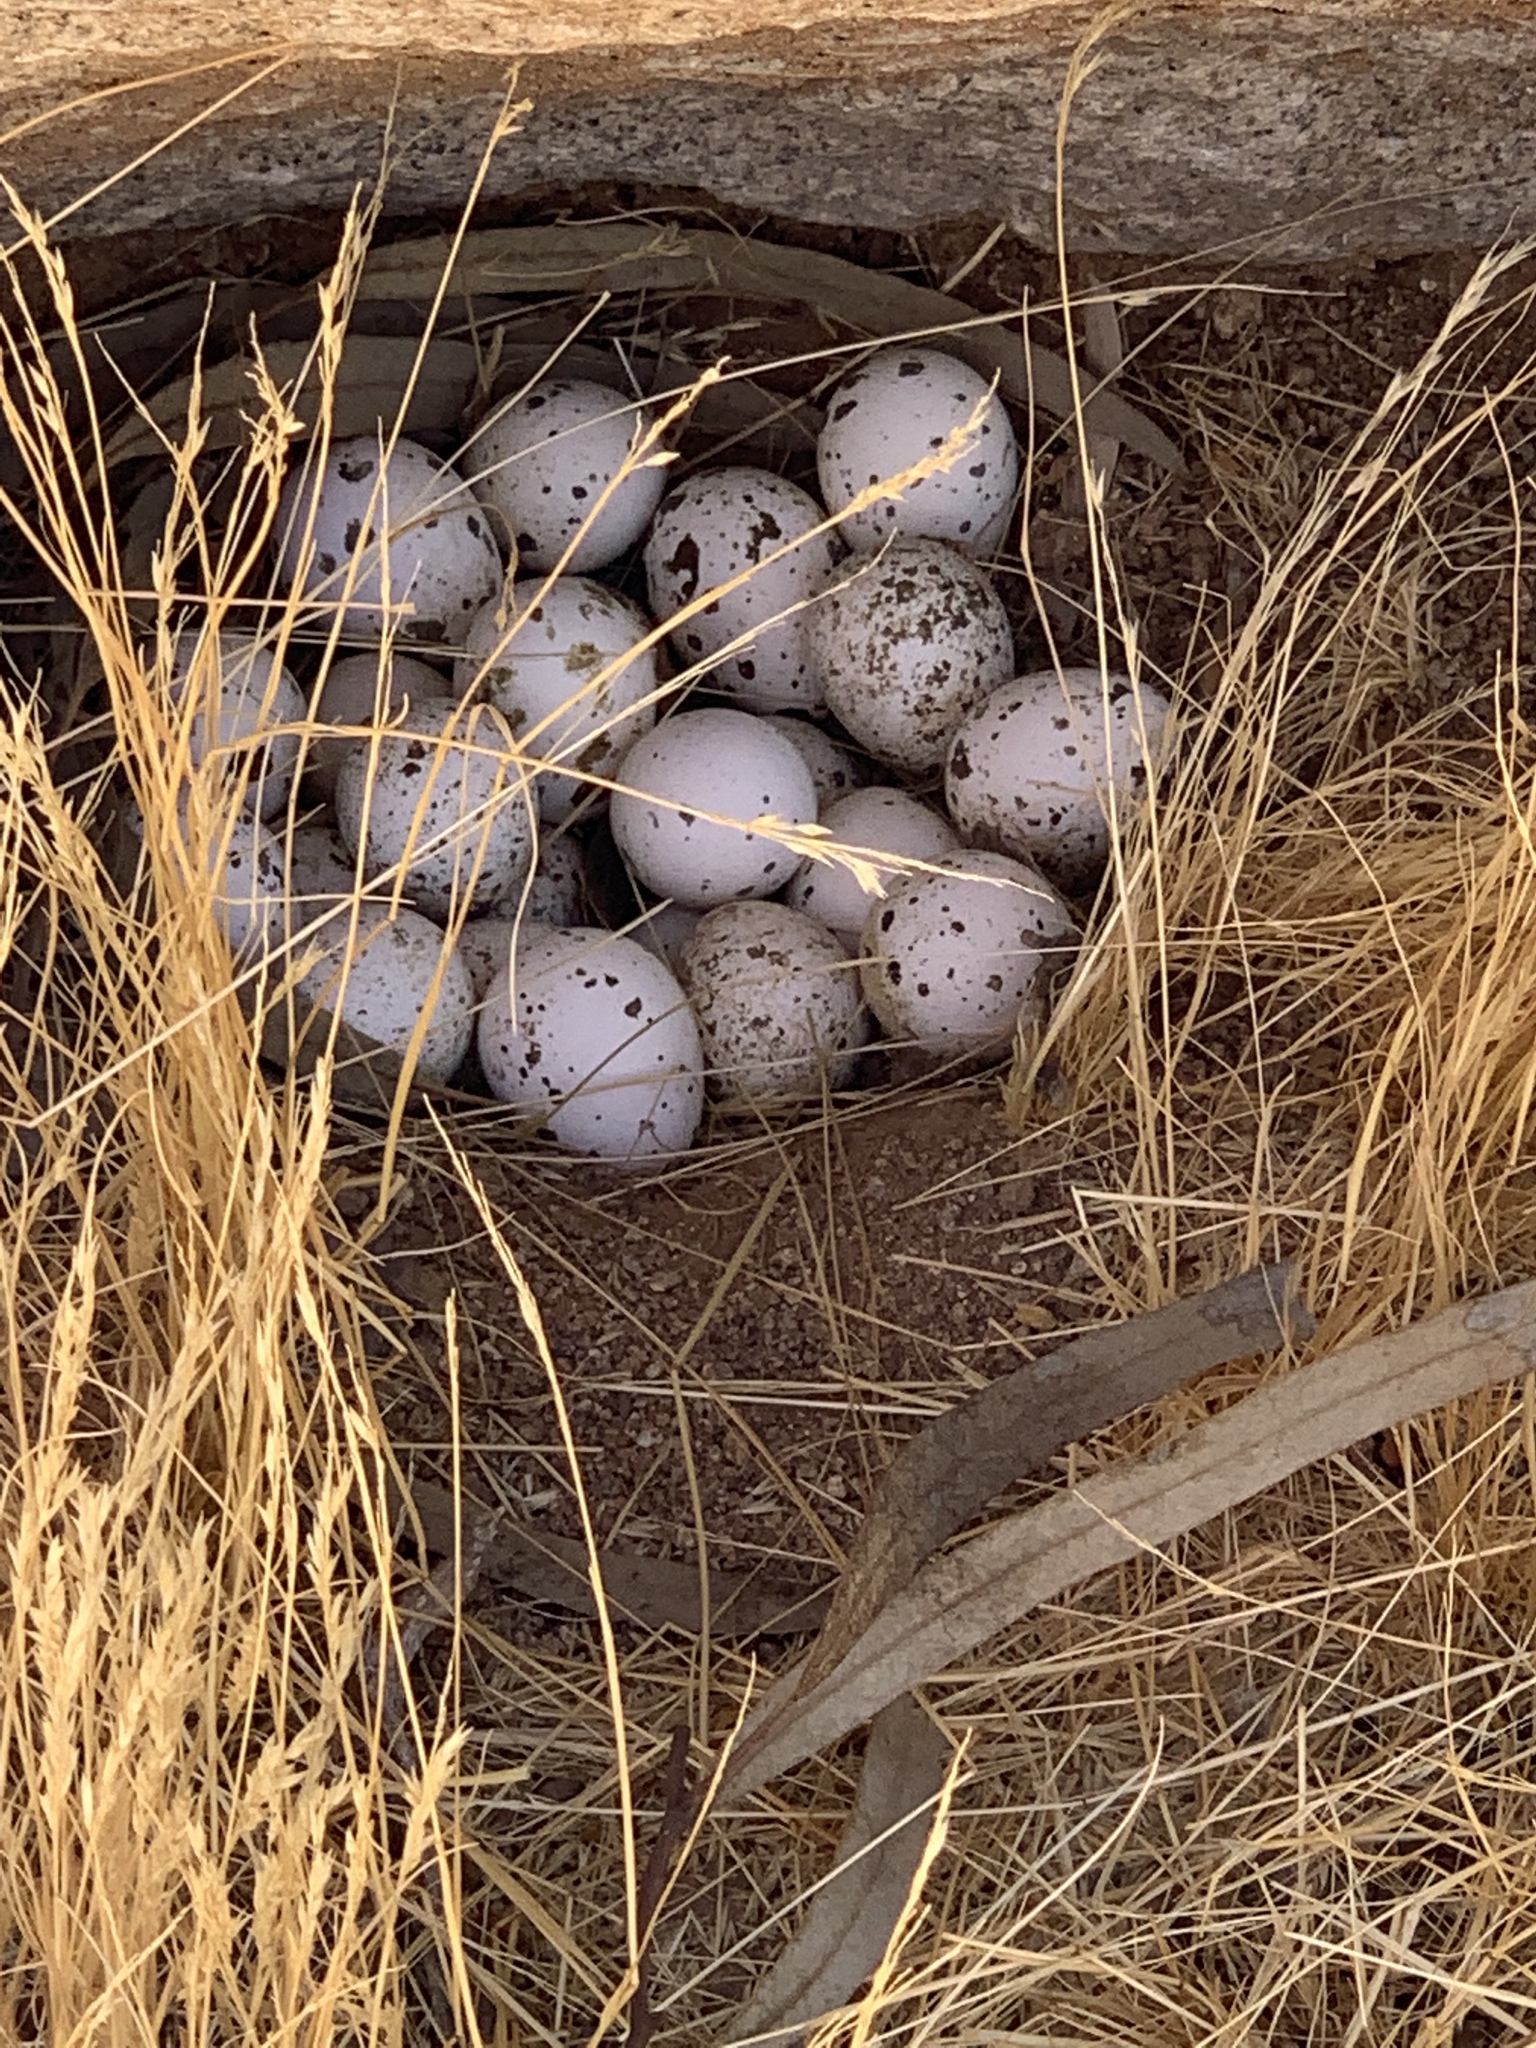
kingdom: Animalia
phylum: Chordata
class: Aves
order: Galliformes
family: Odontophoridae
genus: Callipepla
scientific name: Callipepla gambelii
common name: Gambel's quail
